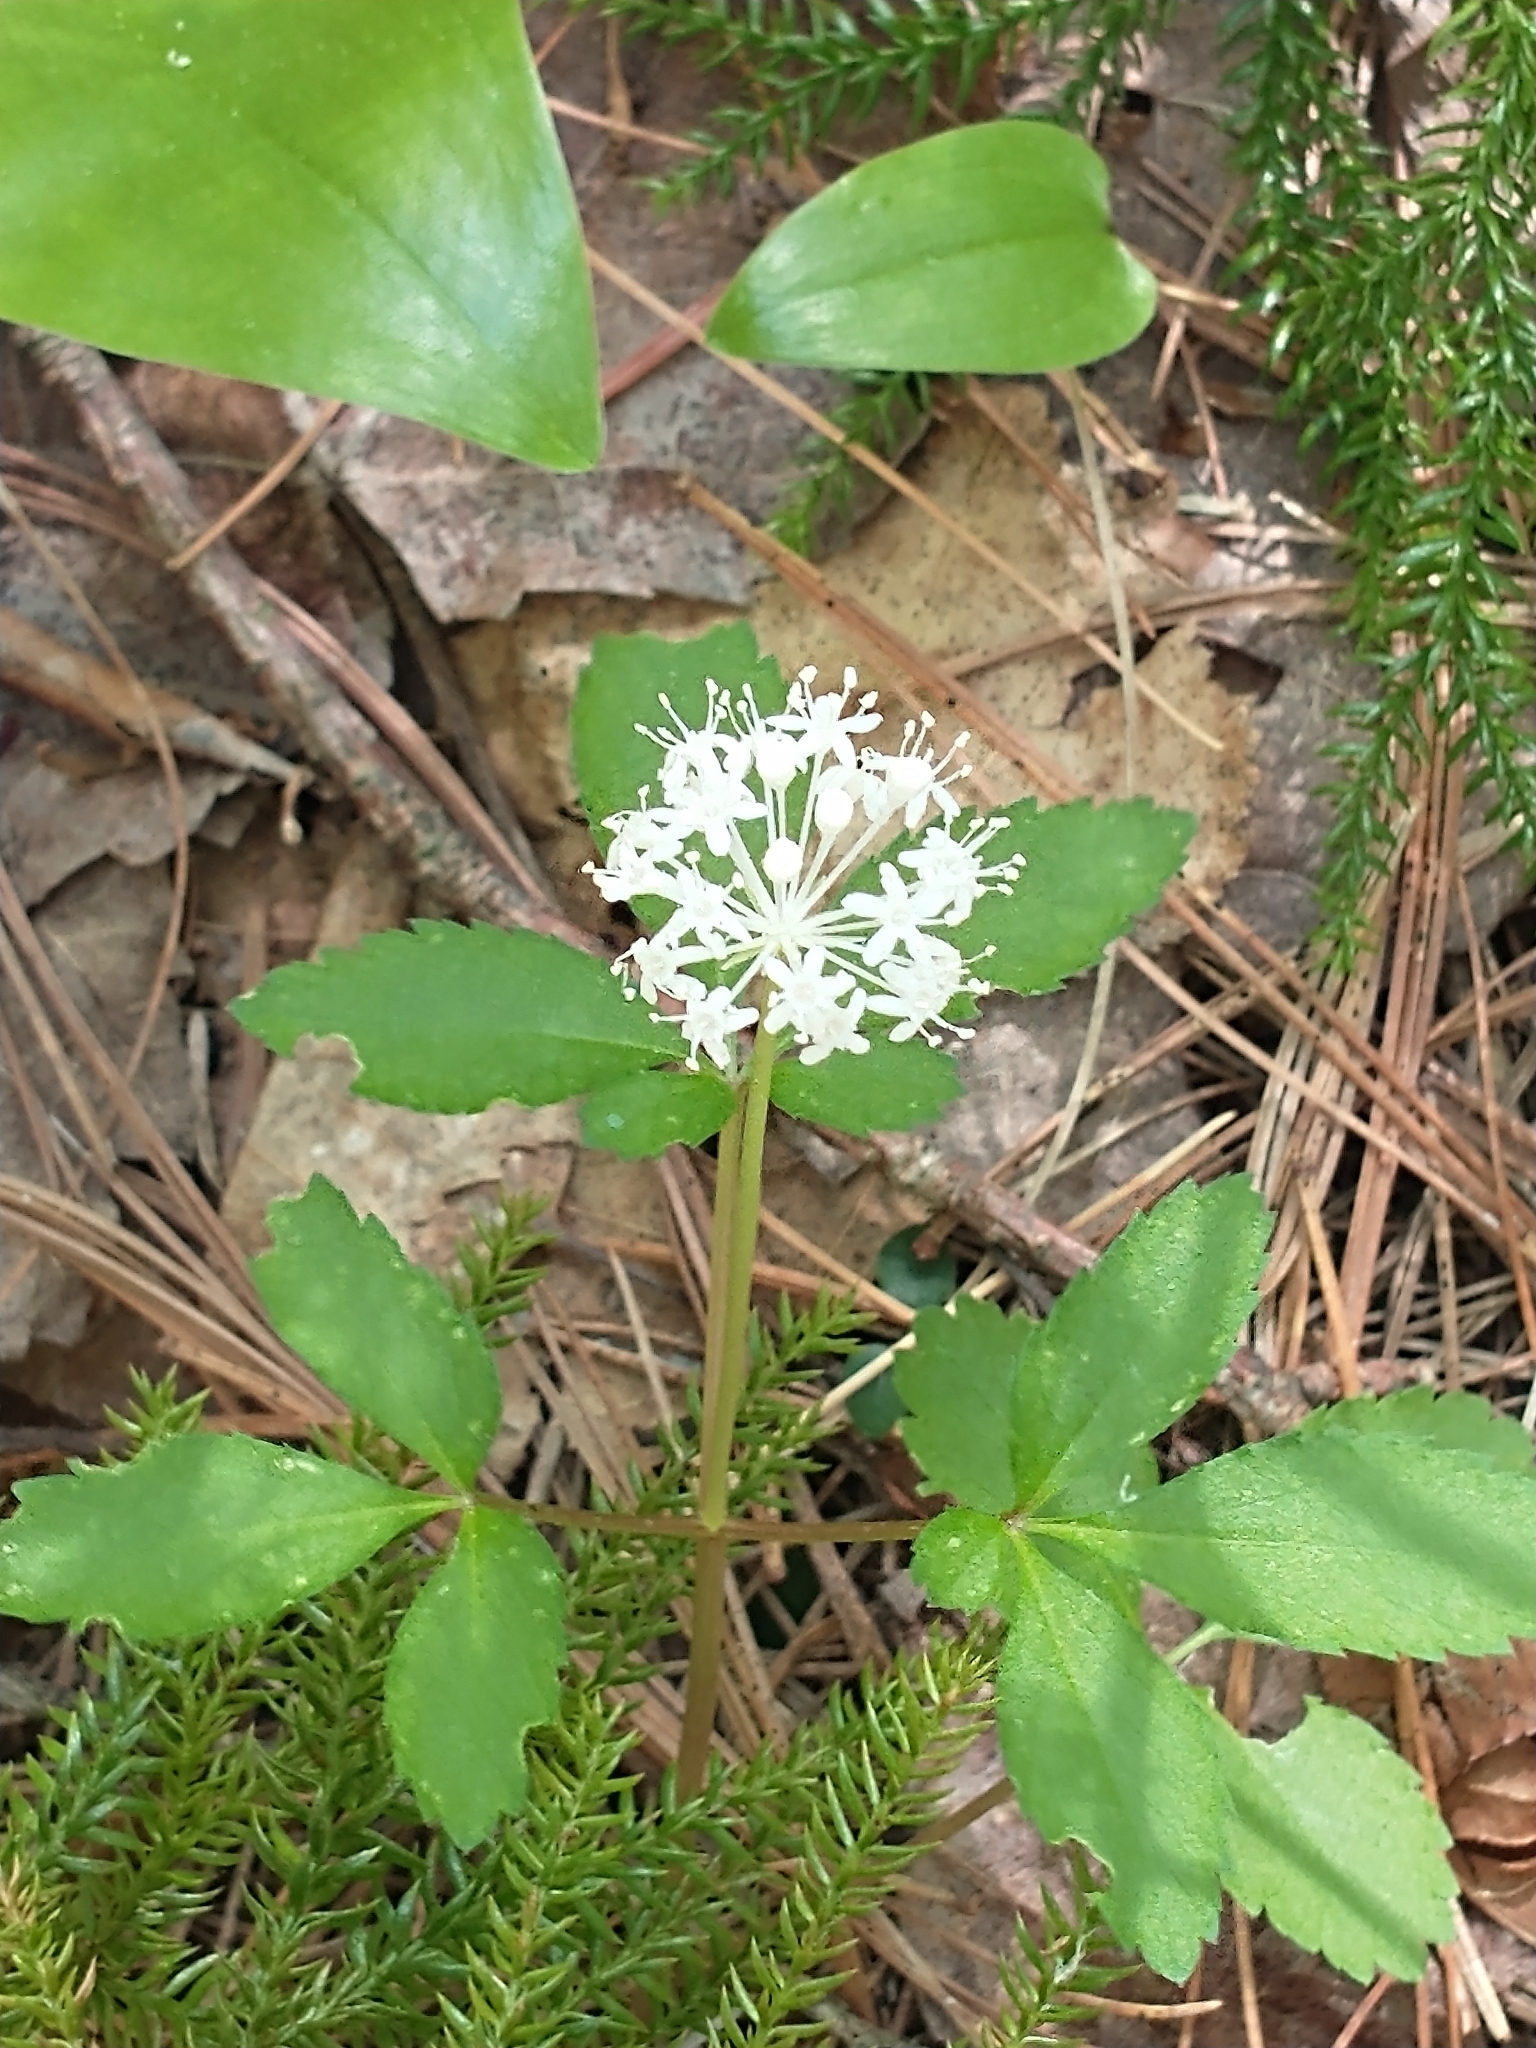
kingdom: Plantae
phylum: Tracheophyta
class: Magnoliopsida
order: Apiales
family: Araliaceae
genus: Panax
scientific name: Panax trifolius
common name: Dwarf ginseng
